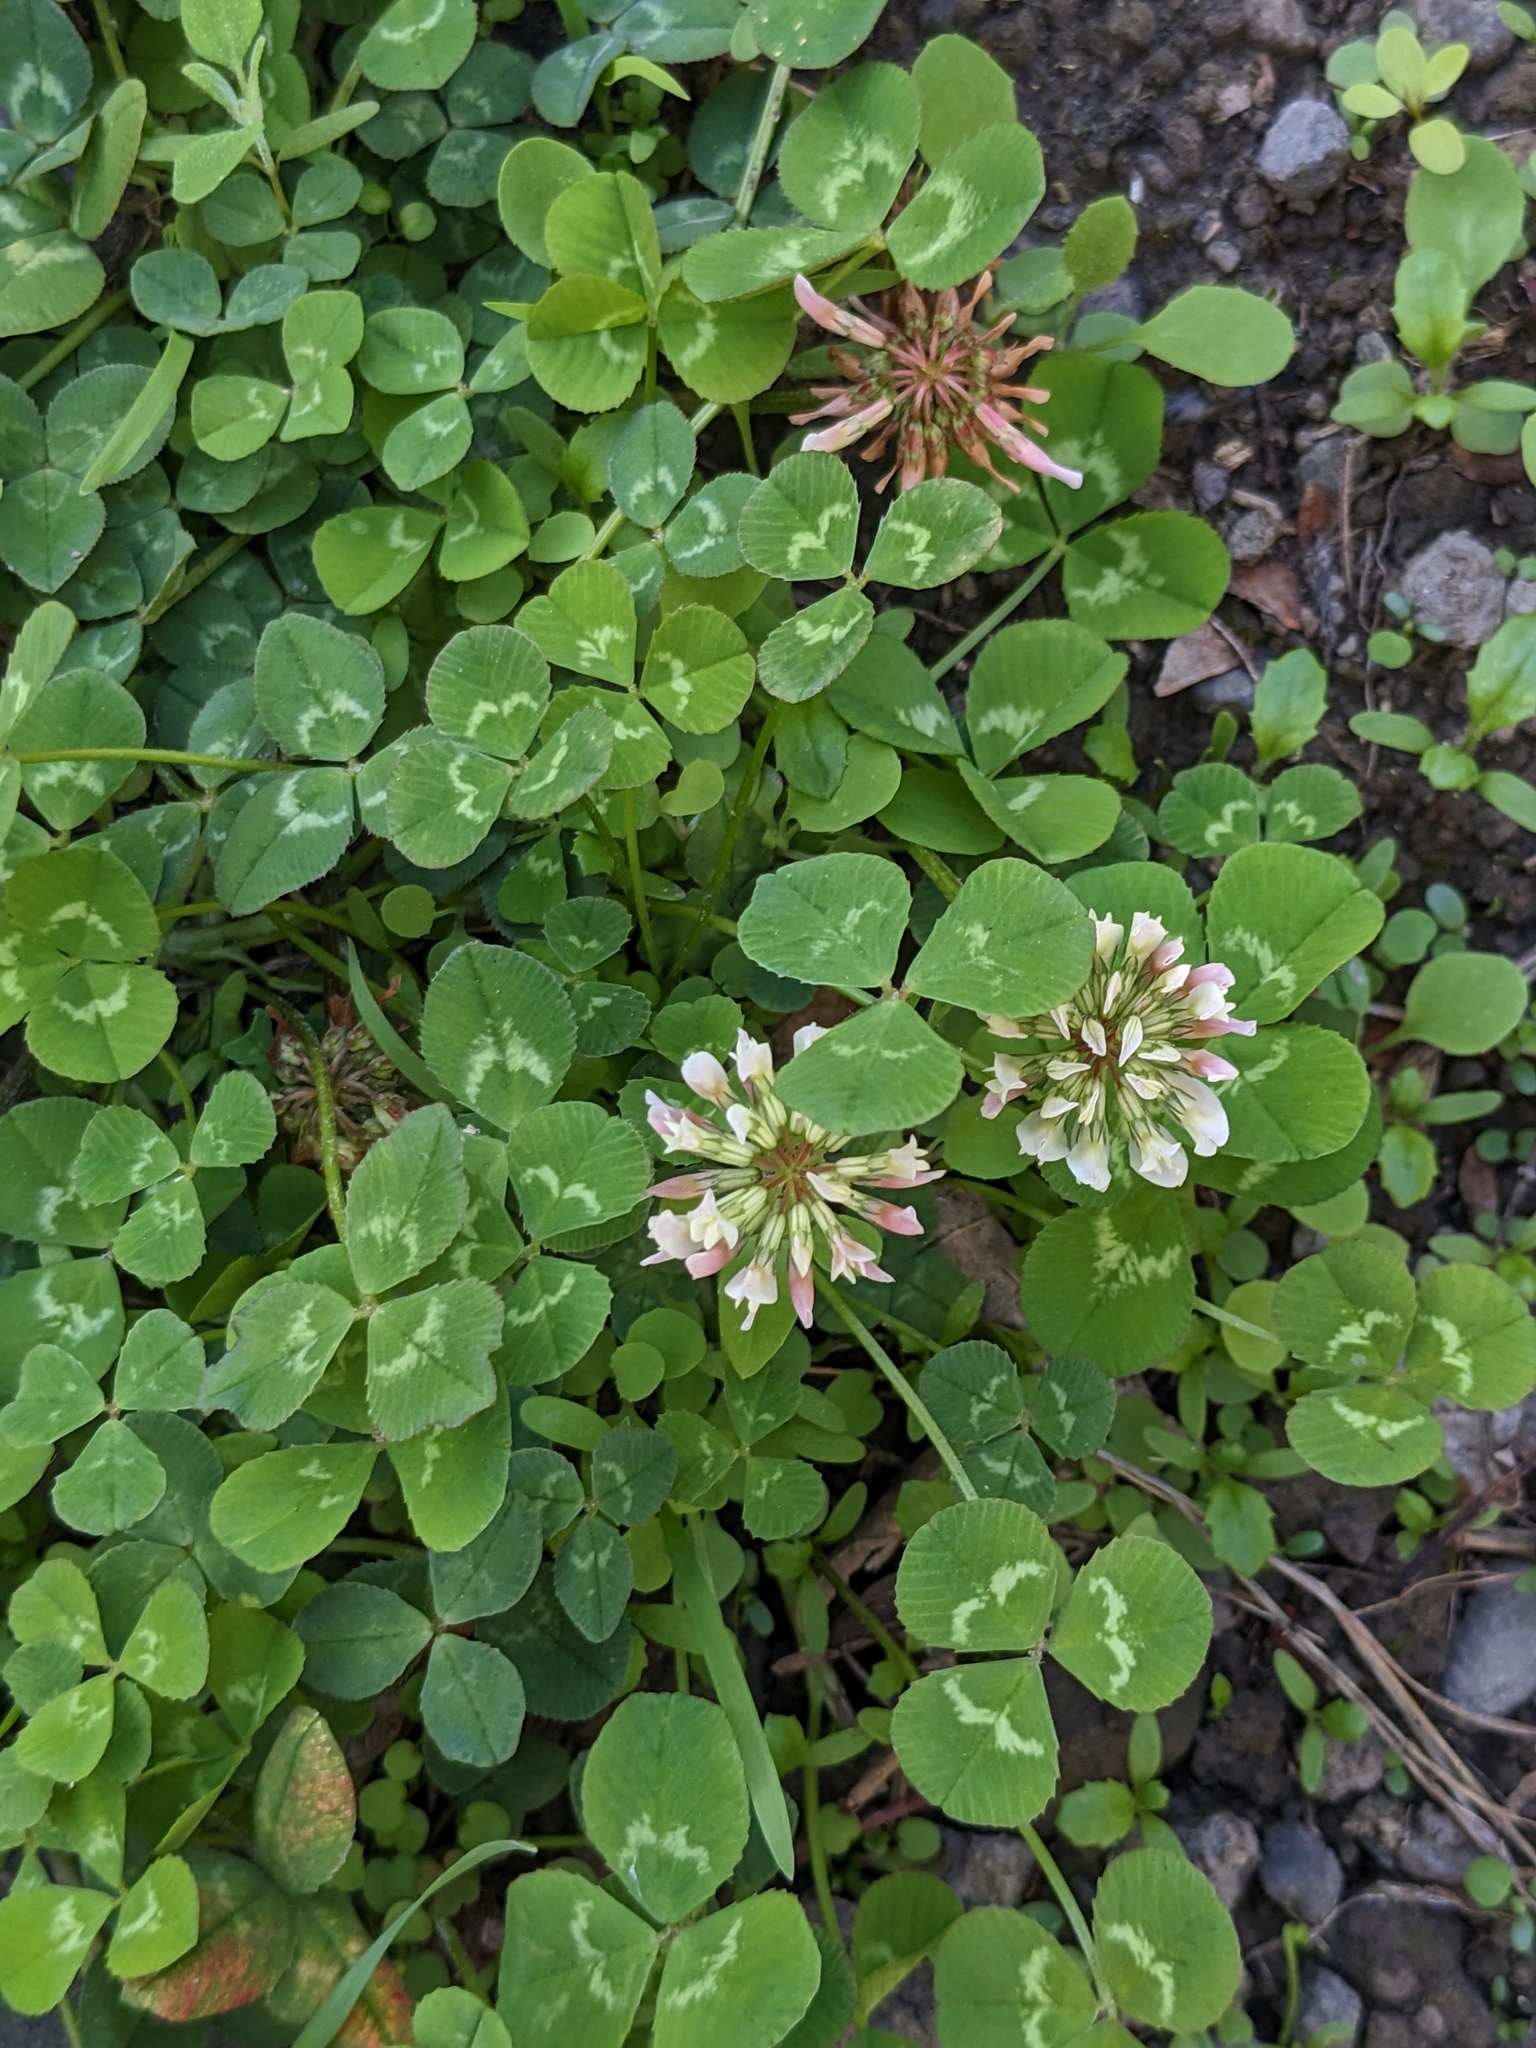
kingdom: Plantae
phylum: Tracheophyta
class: Magnoliopsida
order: Fabales
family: Fabaceae
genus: Trifolium
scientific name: Trifolium repens
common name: White clover
